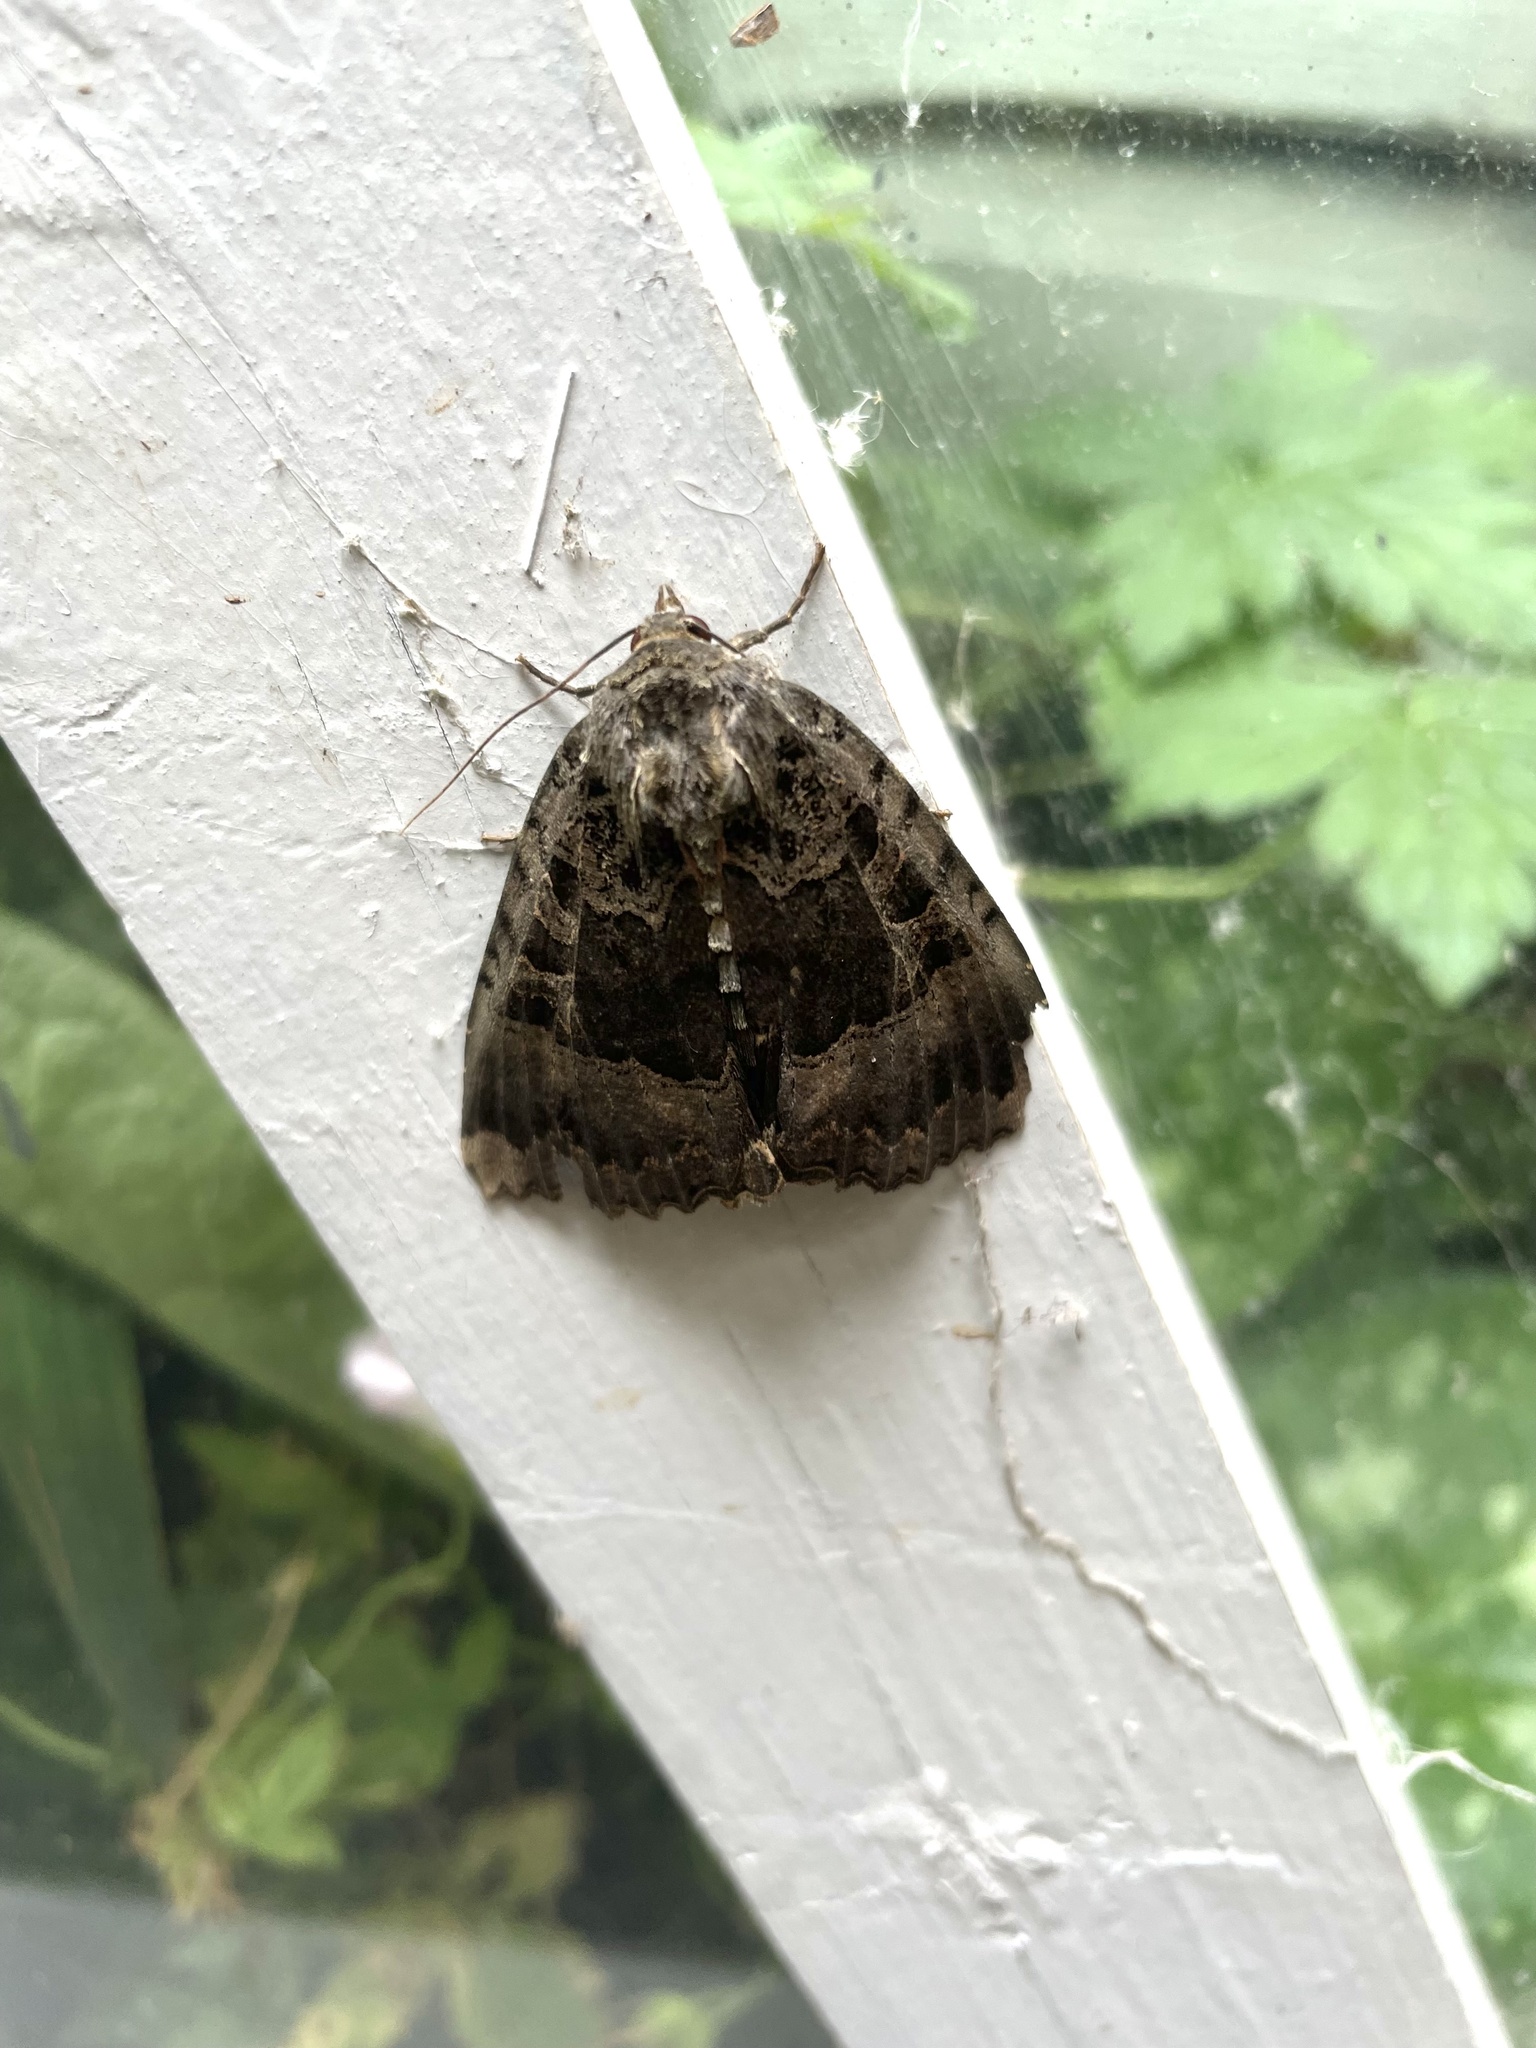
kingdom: Animalia
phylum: Arthropoda
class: Insecta
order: Lepidoptera
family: Noctuidae
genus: Mormo
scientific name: Mormo maura
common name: Old lady
